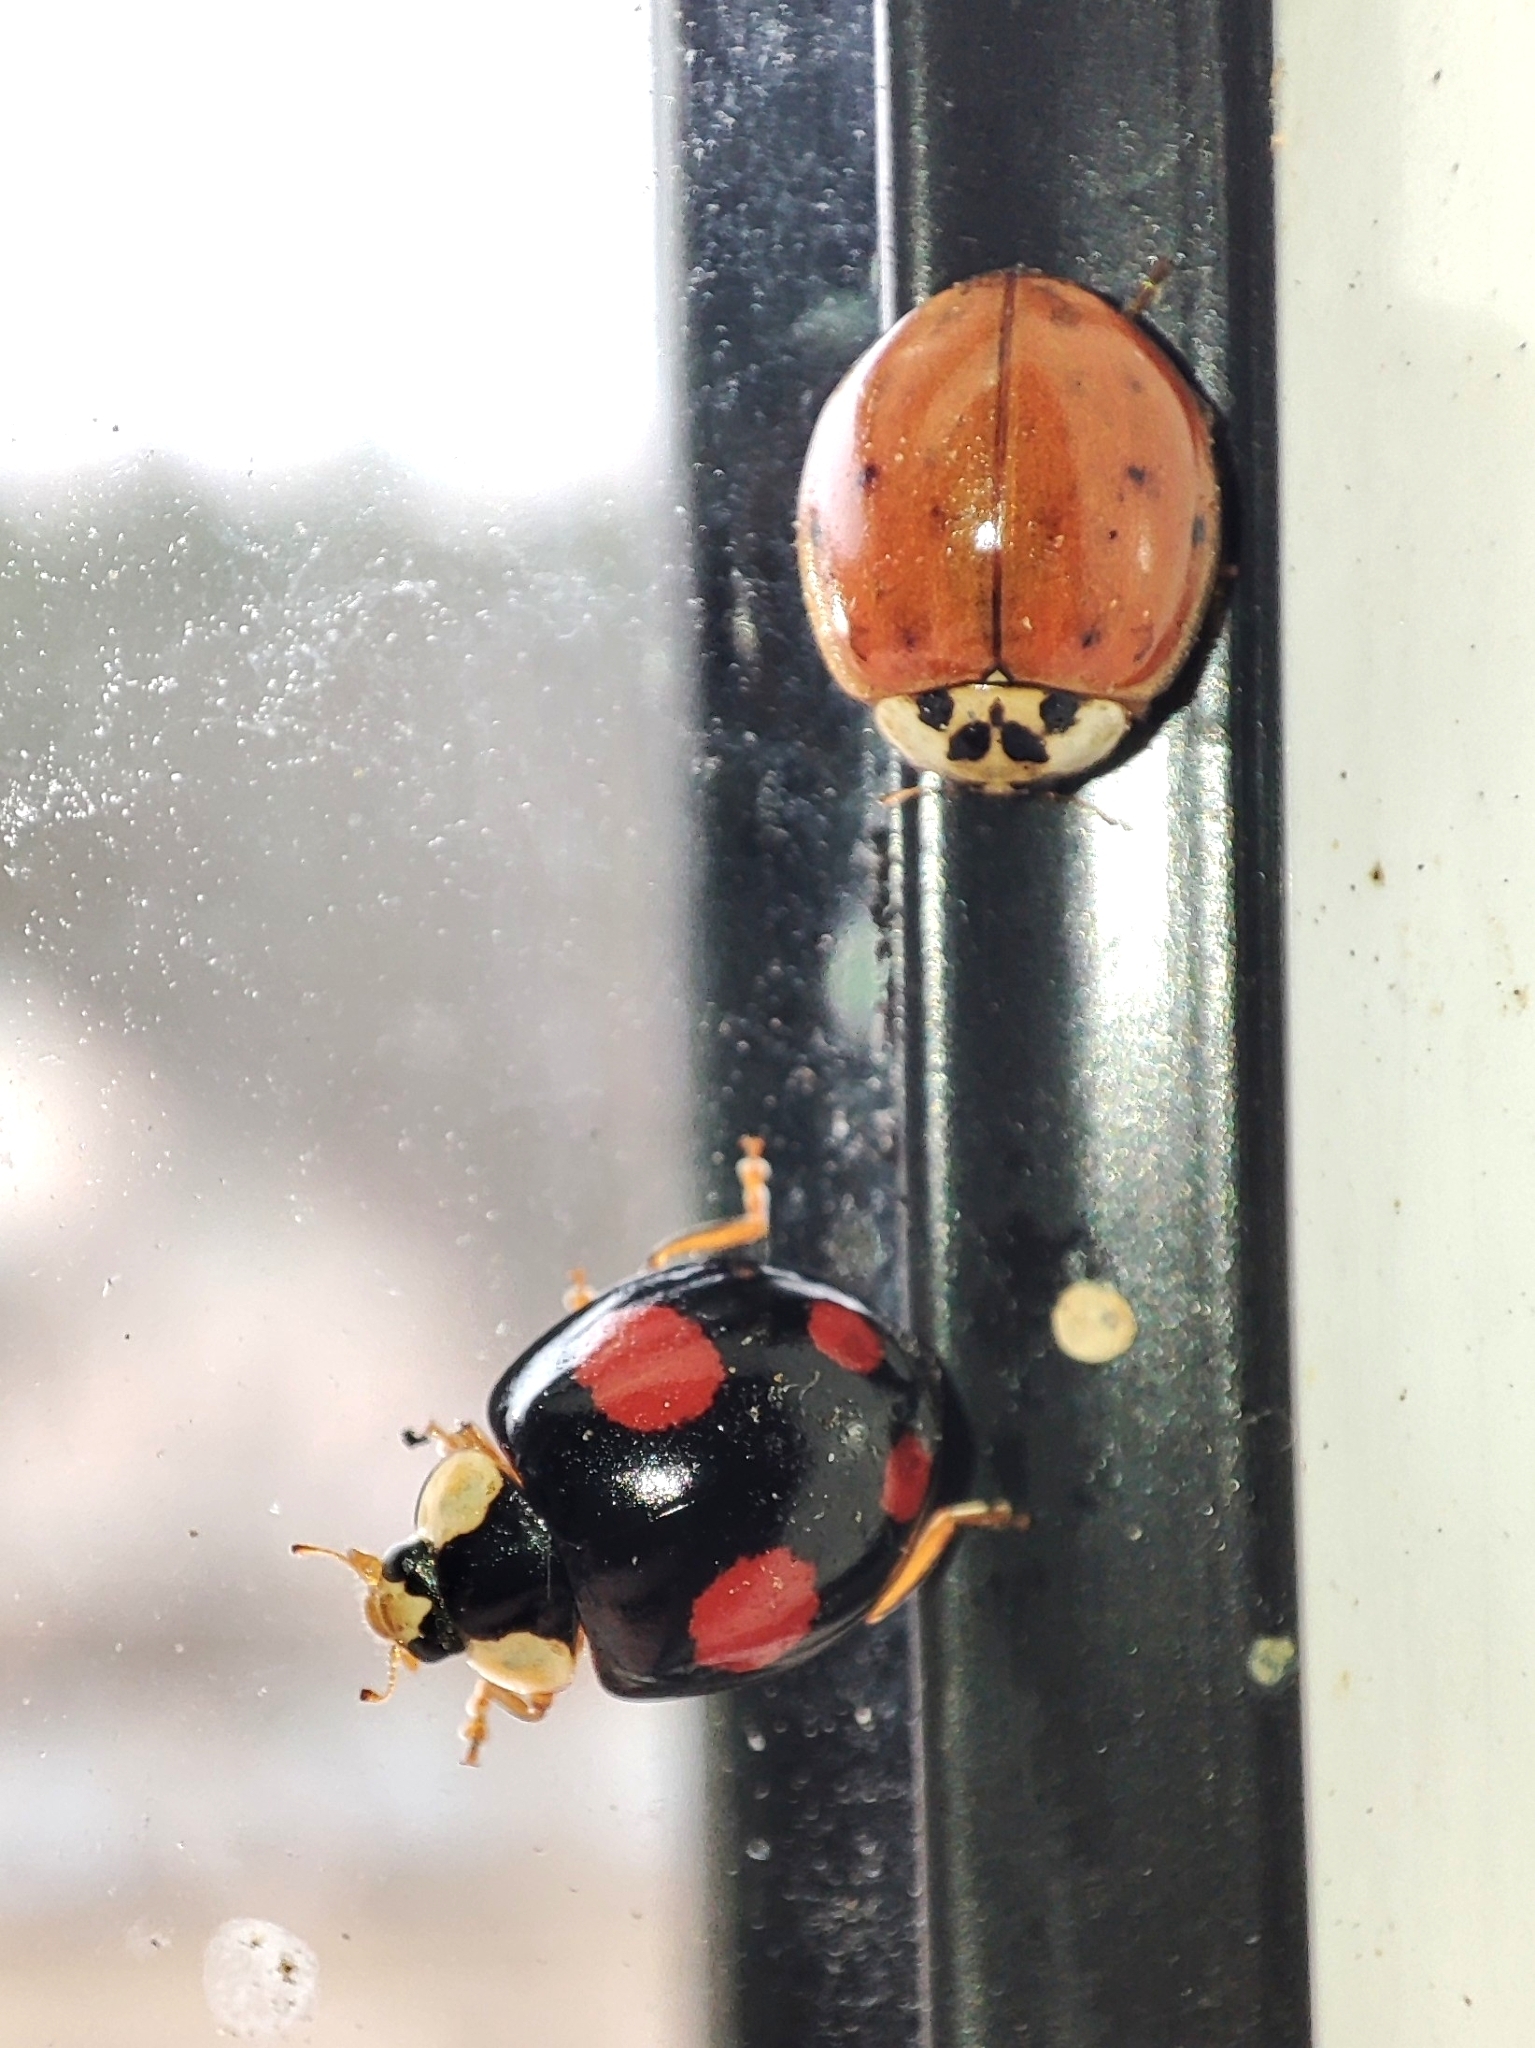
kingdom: Animalia
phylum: Arthropoda
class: Insecta
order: Coleoptera
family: Coccinellidae
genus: Harmonia
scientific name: Harmonia axyridis
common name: Harlequin ladybird
